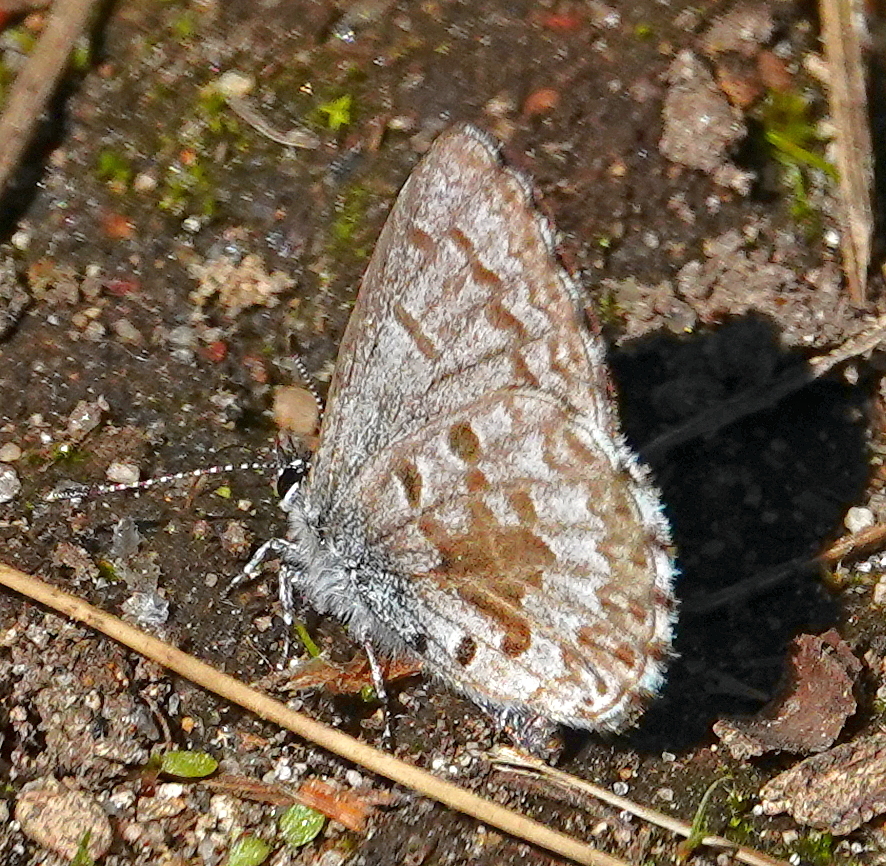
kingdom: Animalia
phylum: Arthropoda
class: Insecta
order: Lepidoptera
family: Lycaenidae
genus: Celastrina
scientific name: Celastrina lucia
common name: Lucia azure
